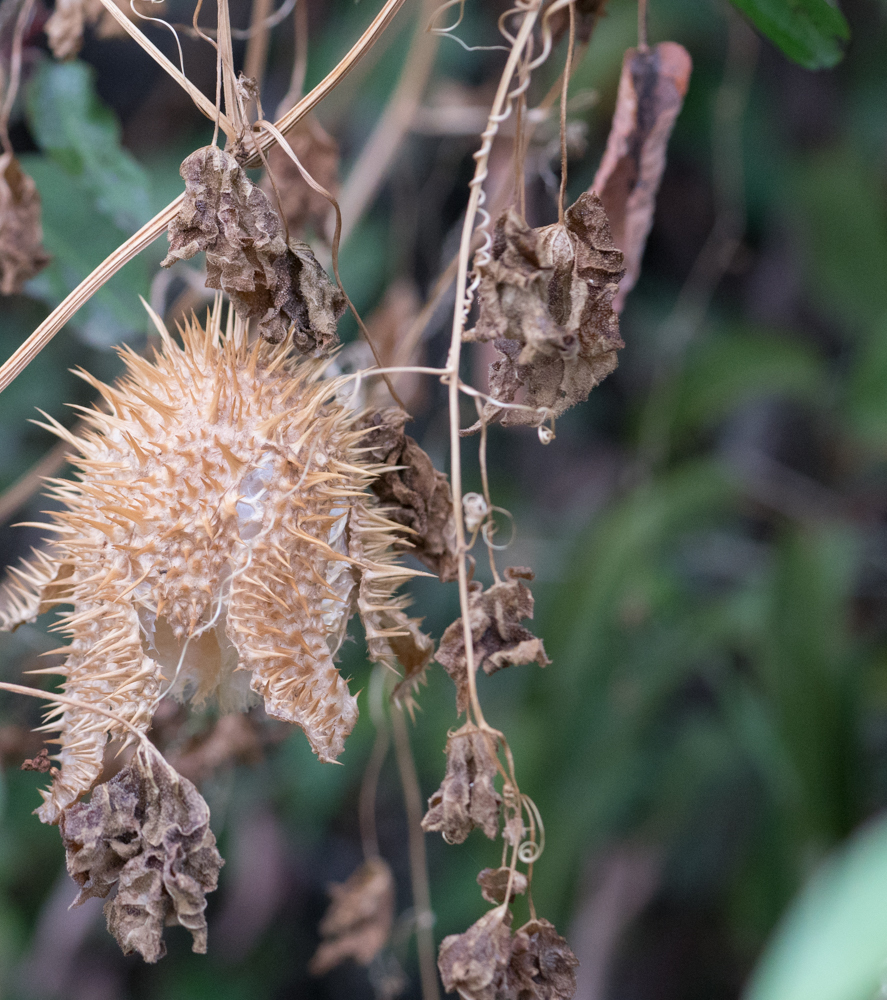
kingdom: Plantae
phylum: Tracheophyta
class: Magnoliopsida
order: Cucurbitales
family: Cucurbitaceae
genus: Marah
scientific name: Marah macrocarpa
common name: Cucamonga manroot
